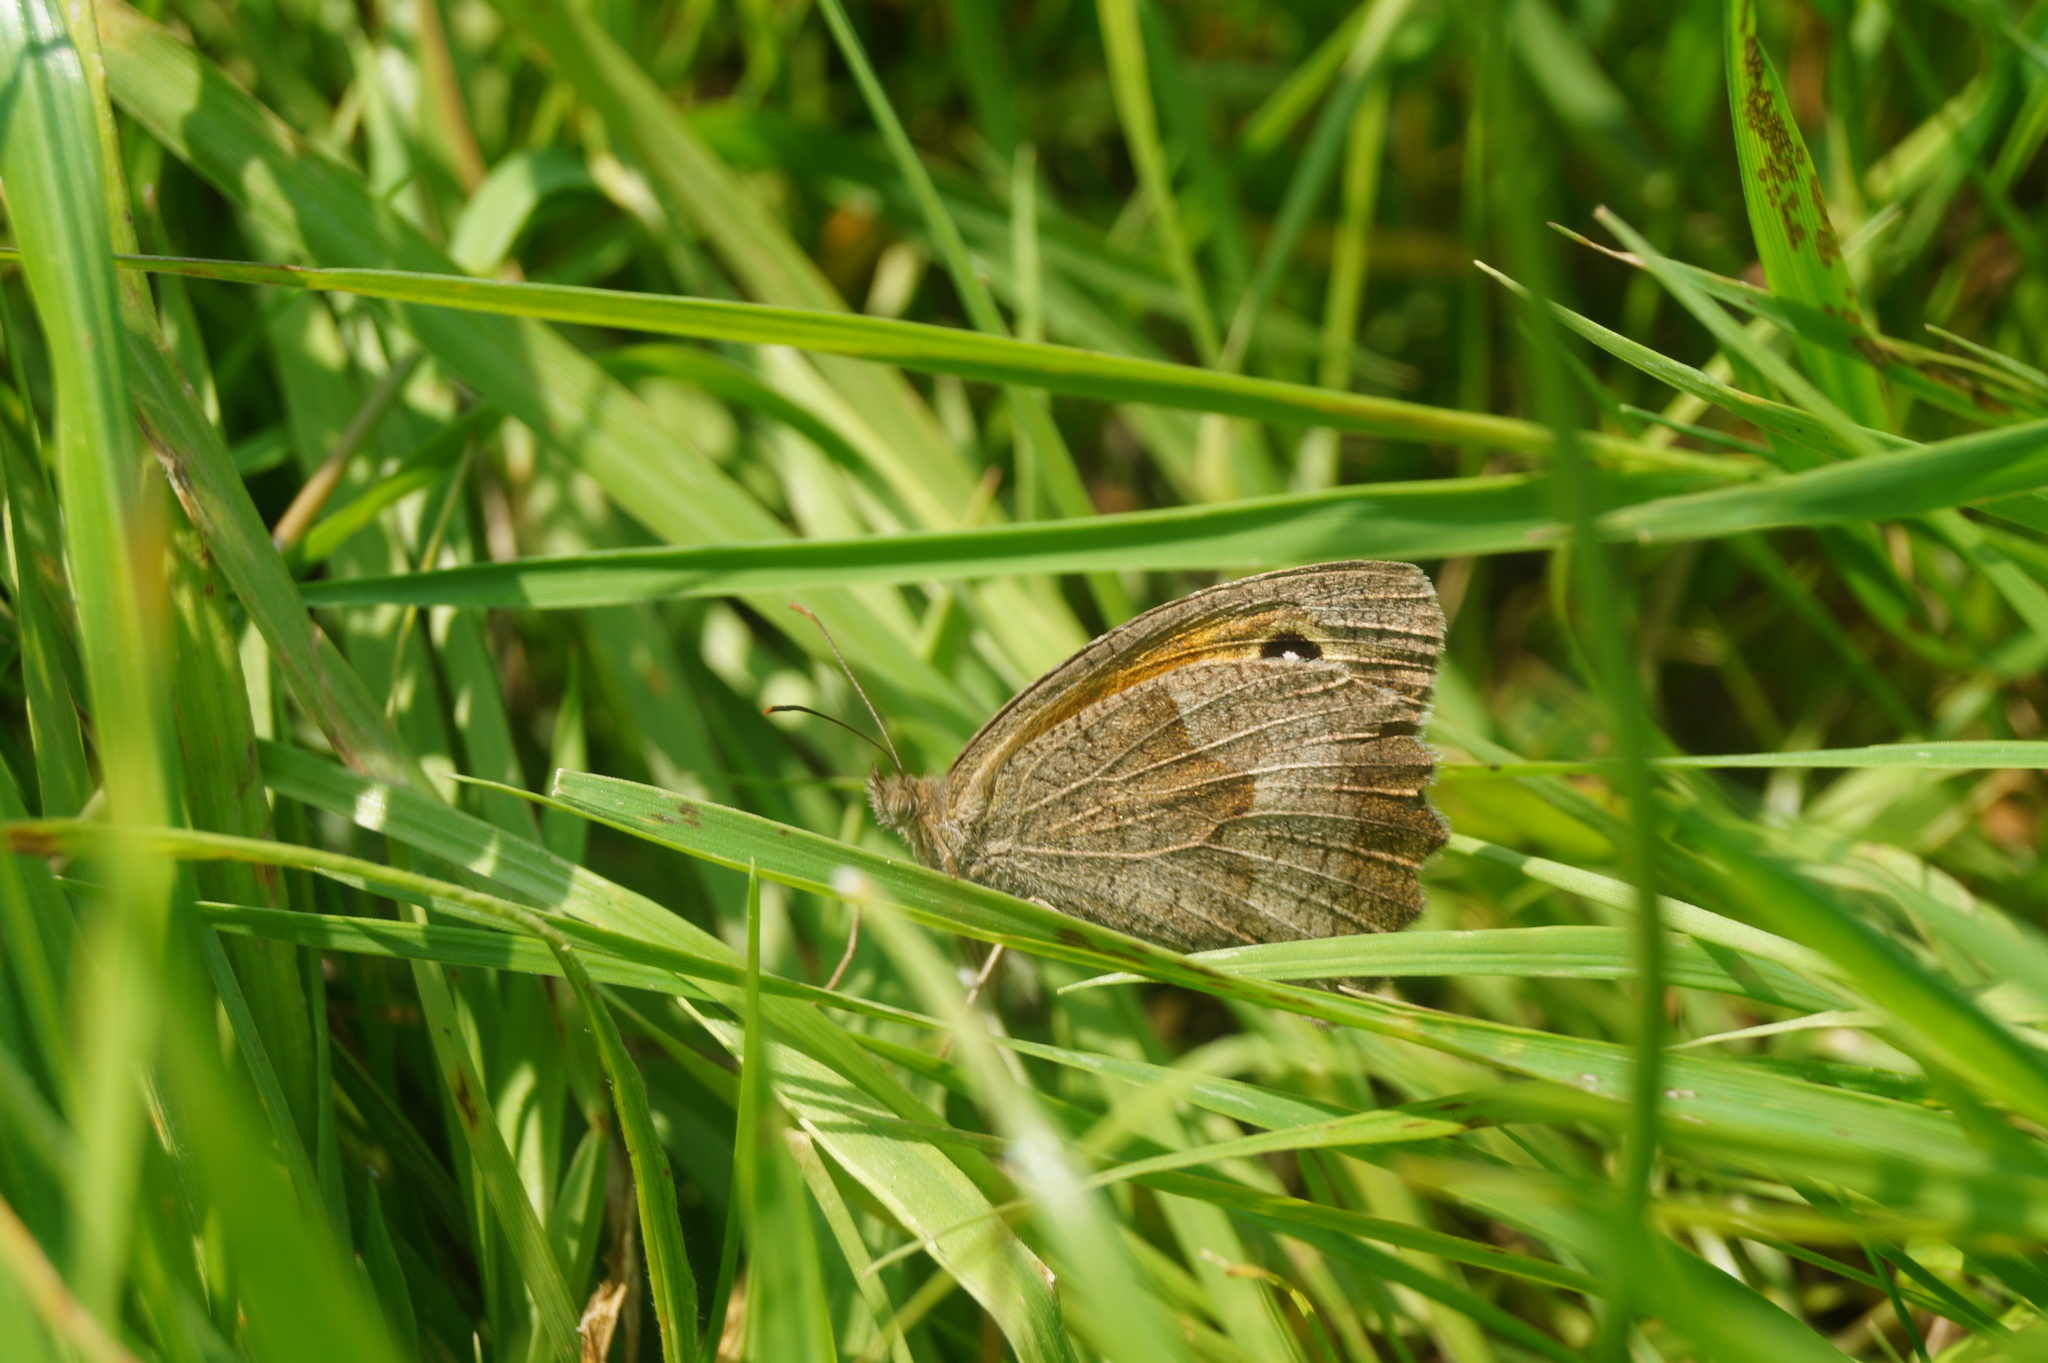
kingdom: Animalia
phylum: Arthropoda
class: Insecta
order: Lepidoptera
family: Nymphalidae
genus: Maniola
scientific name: Maniola jurtina
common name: Meadow brown
